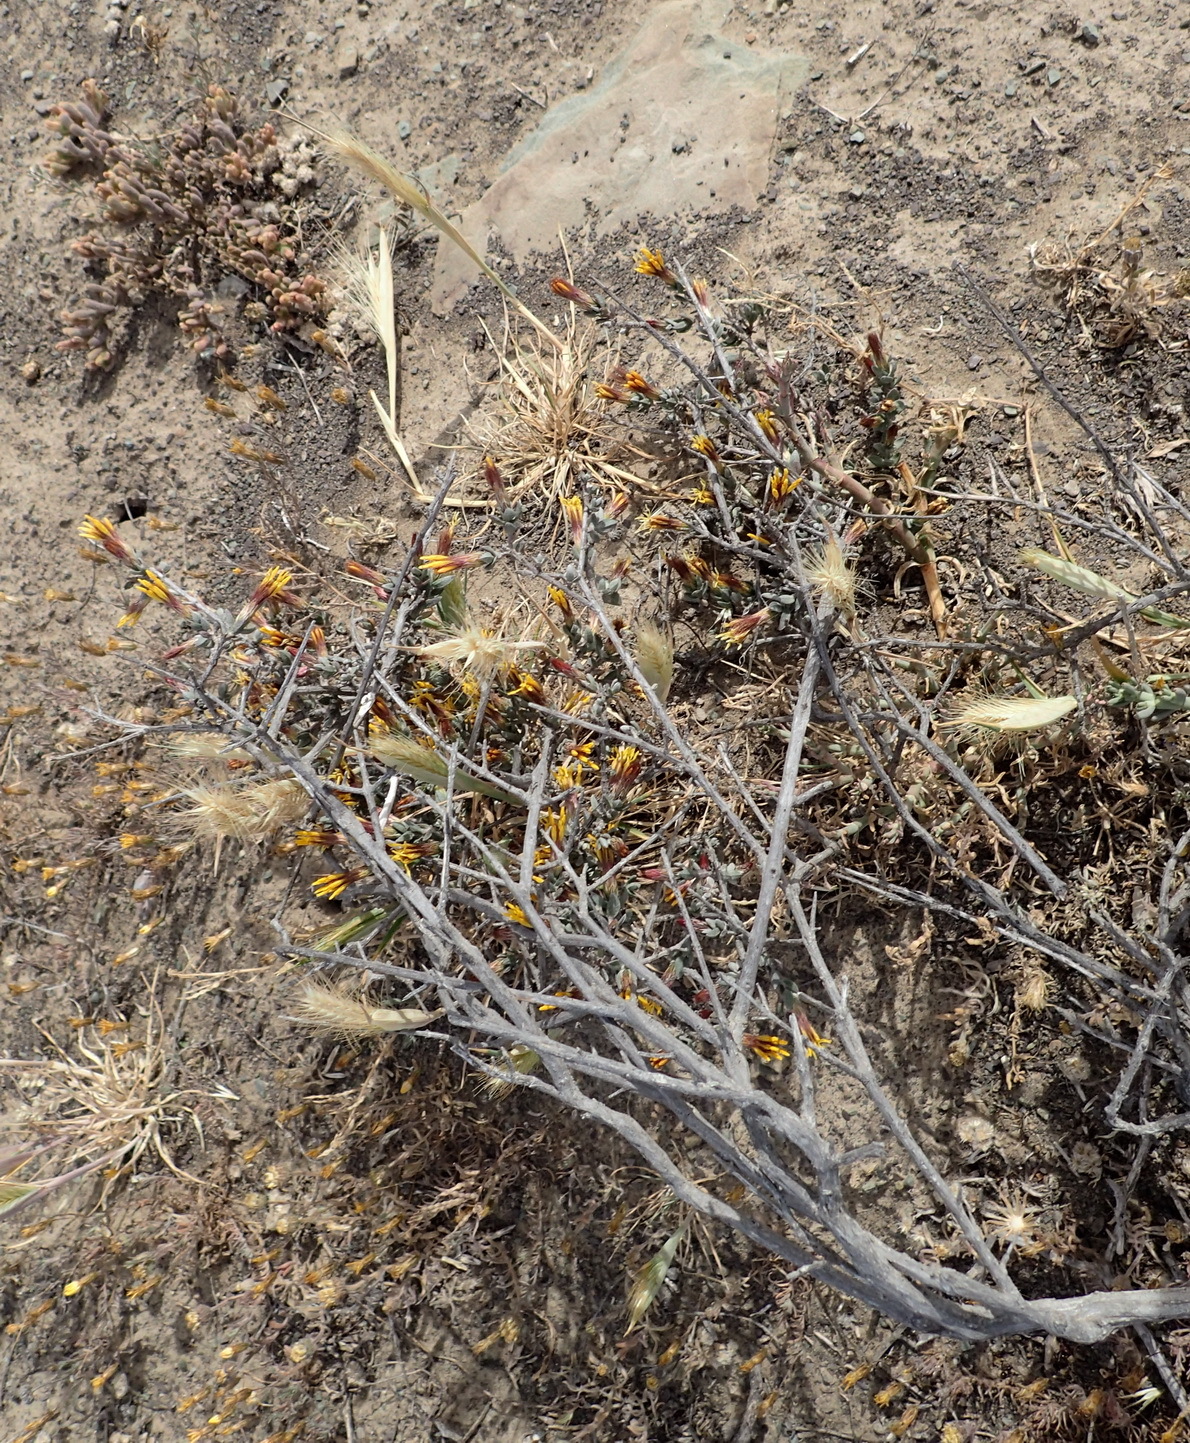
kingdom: Plantae
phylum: Tracheophyta
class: Magnoliopsida
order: Asterales
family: Asteraceae
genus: Pteronia
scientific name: Pteronia erythrochaeta
